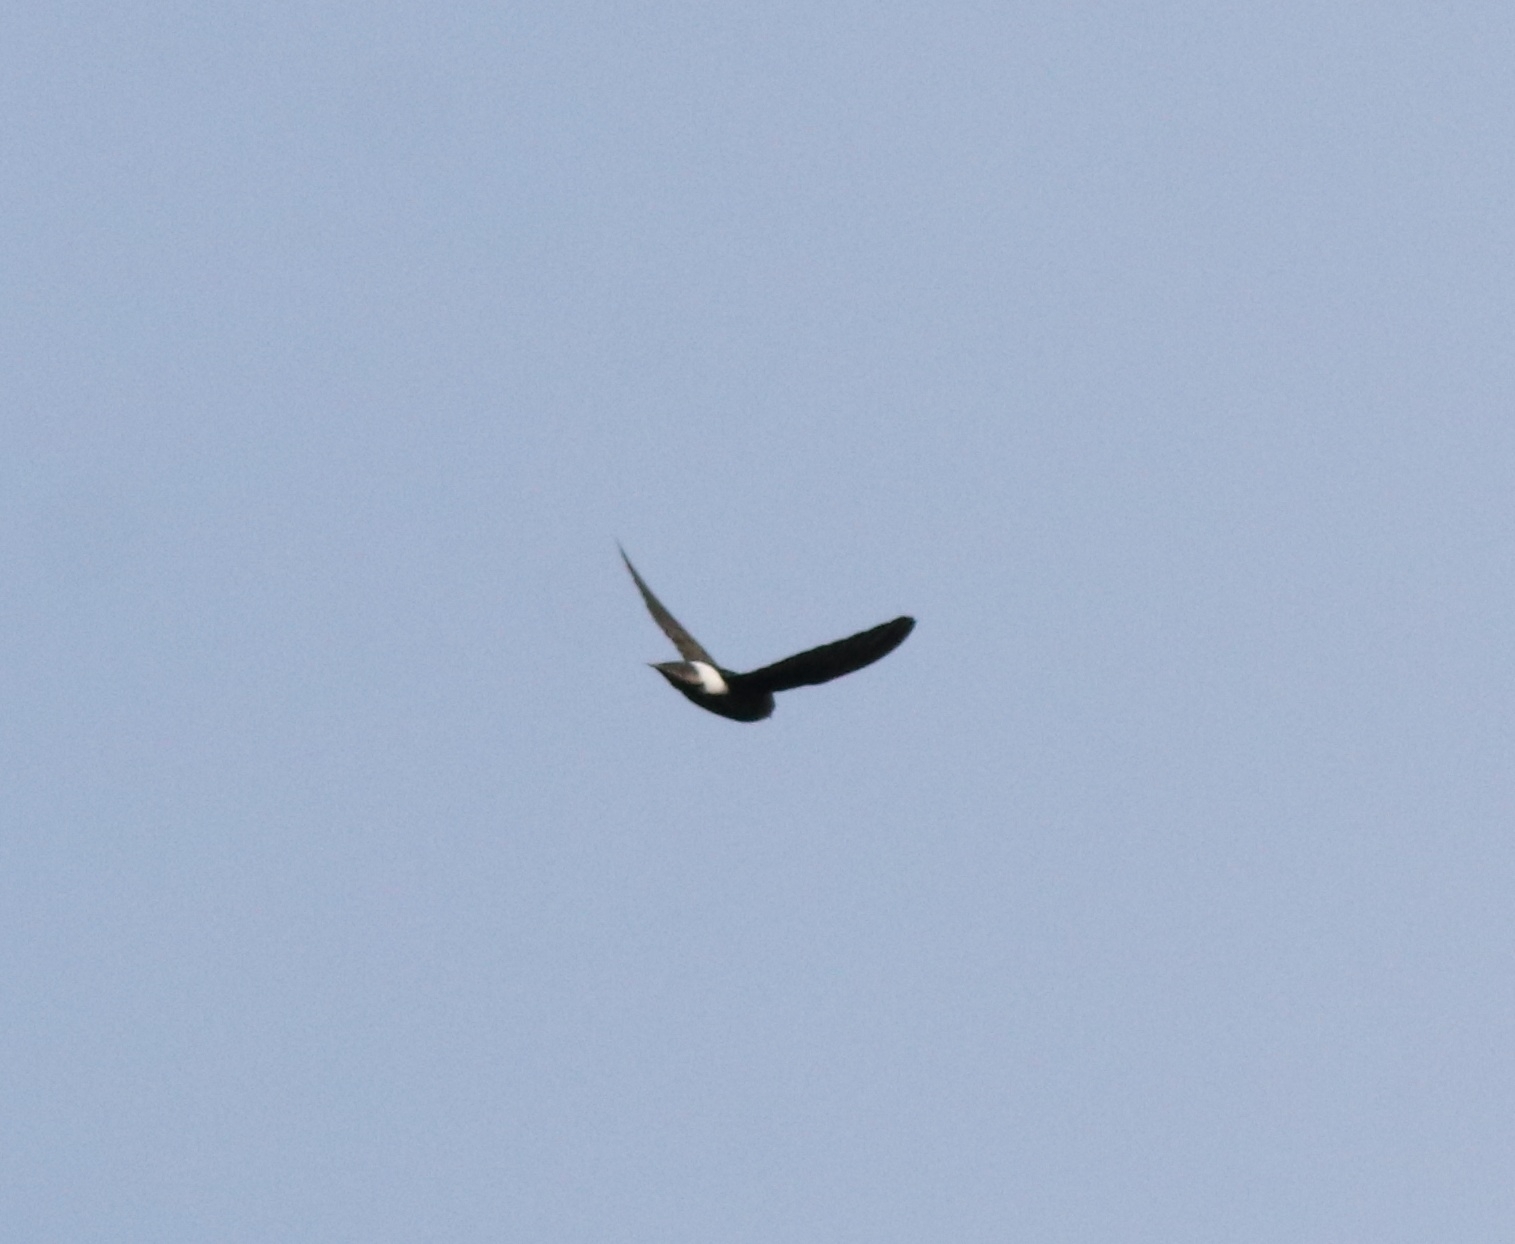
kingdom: Animalia
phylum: Chordata
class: Aves
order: Apodiformes
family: Apodidae
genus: Apus
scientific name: Apus affinis
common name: Little swift
